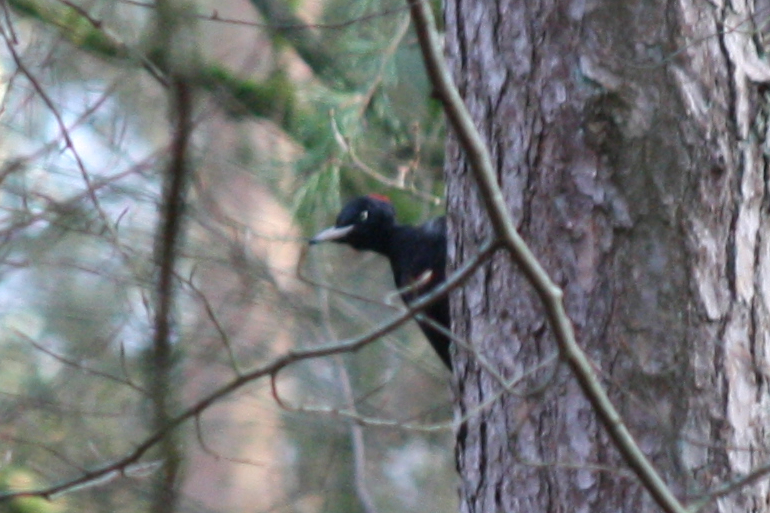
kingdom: Animalia
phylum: Chordata
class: Aves
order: Piciformes
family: Picidae
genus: Dryocopus
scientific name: Dryocopus martius
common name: Black woodpecker
